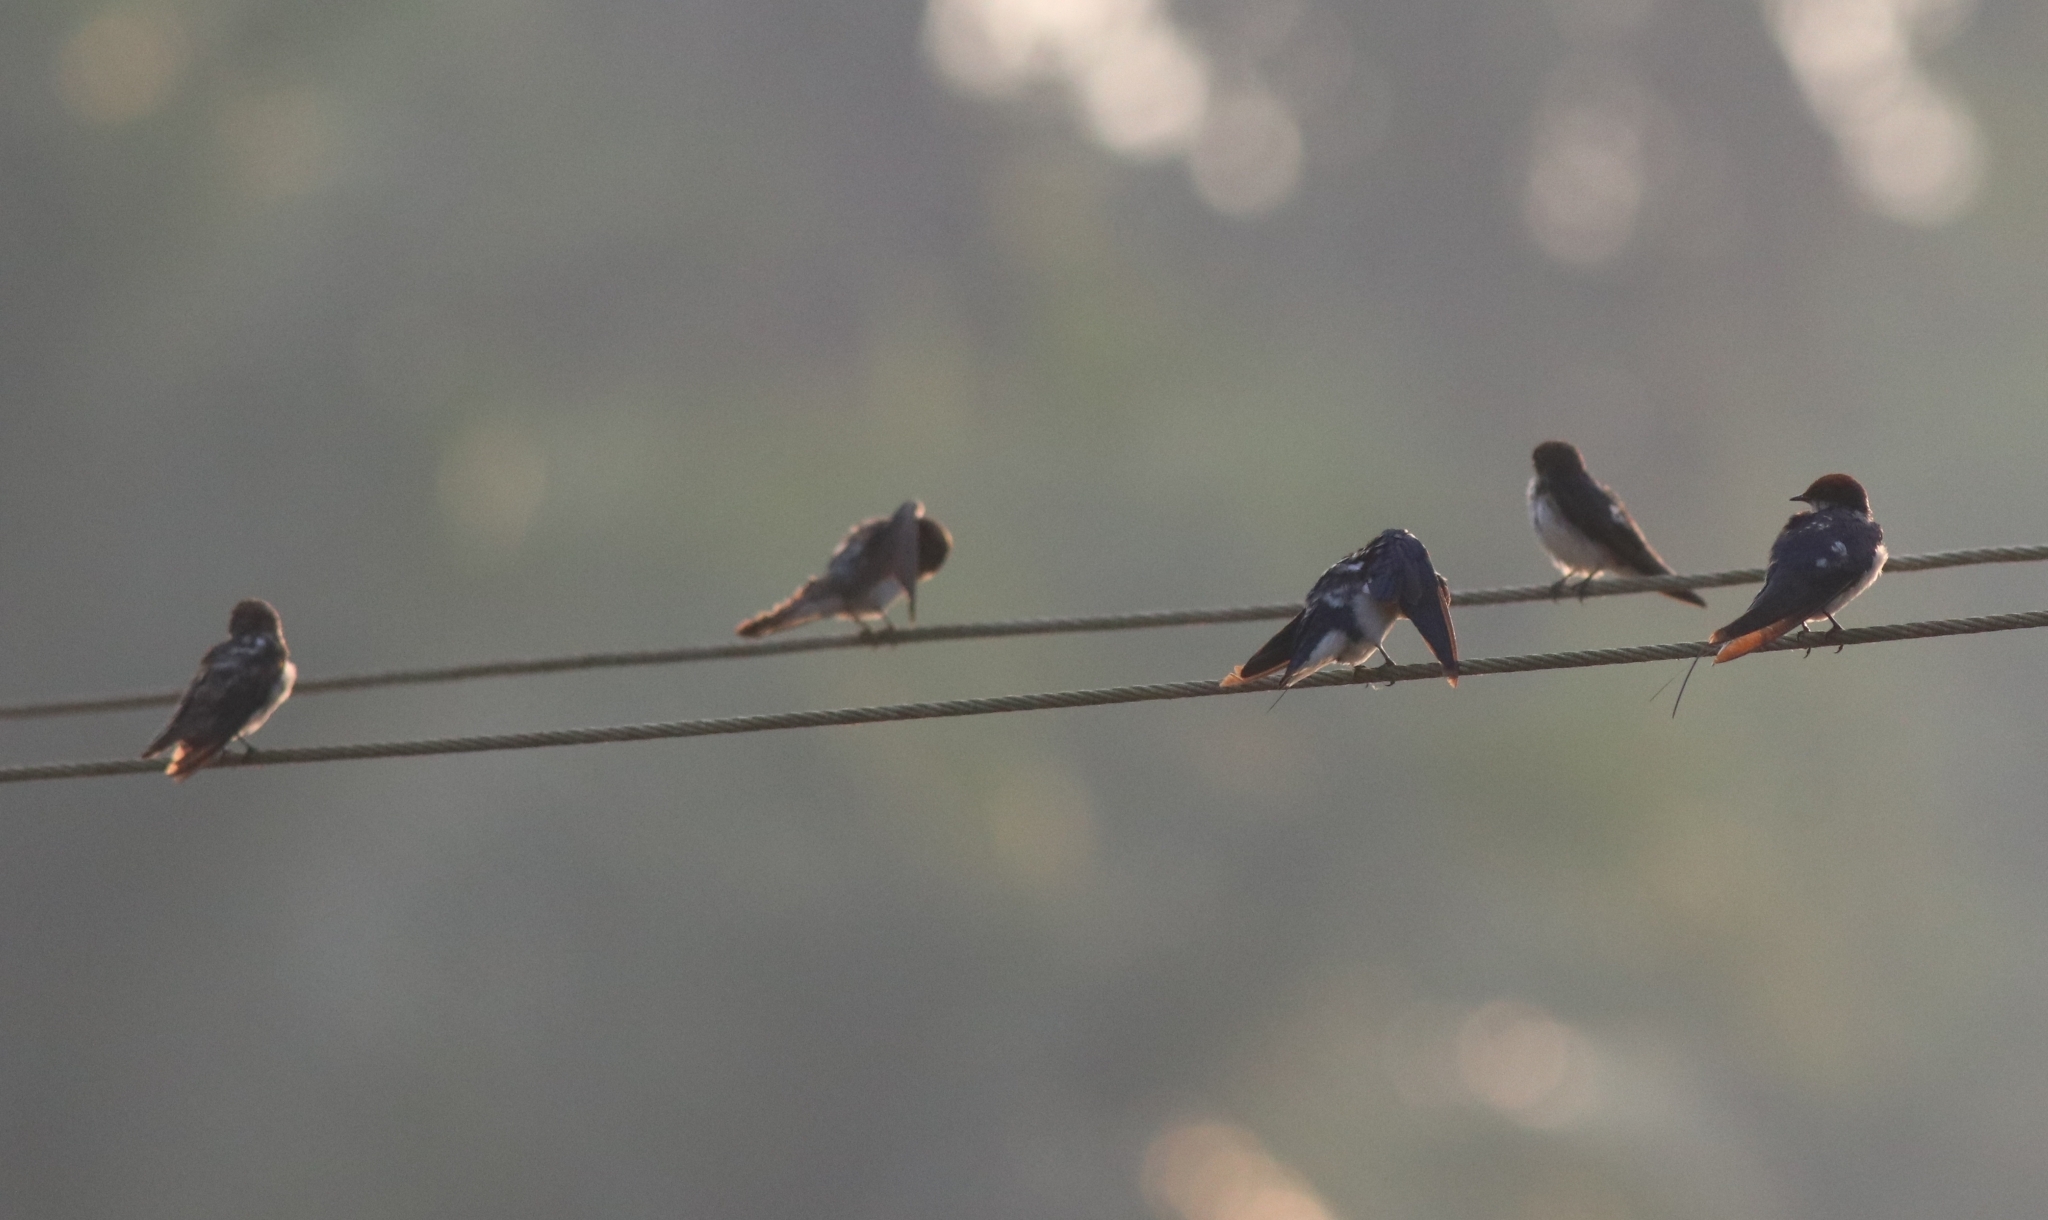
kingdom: Animalia
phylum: Chordata
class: Aves
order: Passeriformes
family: Hirundinidae
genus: Hirundo
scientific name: Hirundo smithii
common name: Wire-tailed swallow
